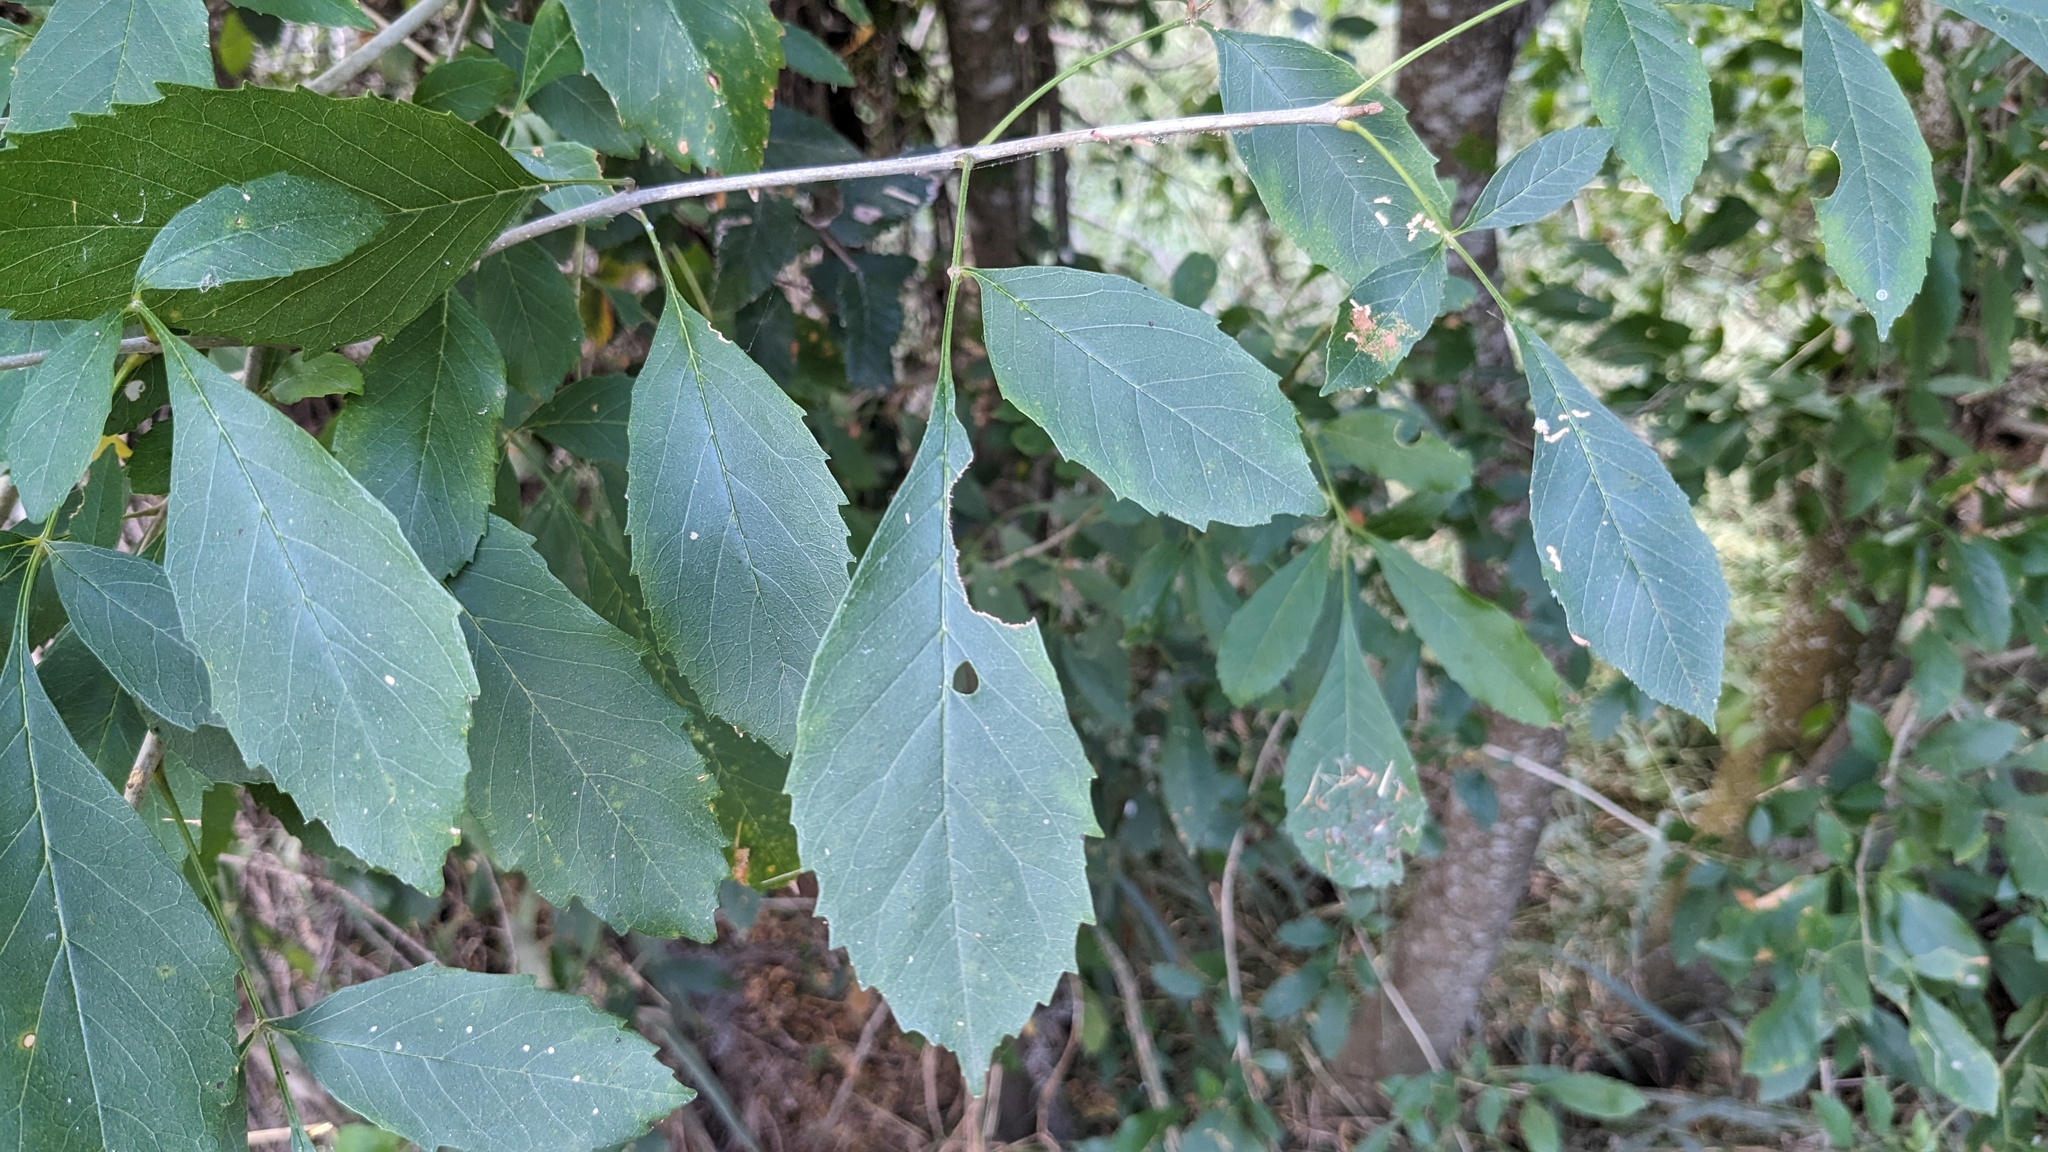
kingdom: Plantae
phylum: Tracheophyta
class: Magnoliopsida
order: Lamiales
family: Oleaceae
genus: Fraxinus
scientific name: Fraxinus berlandieriana
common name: Berlandier ash
